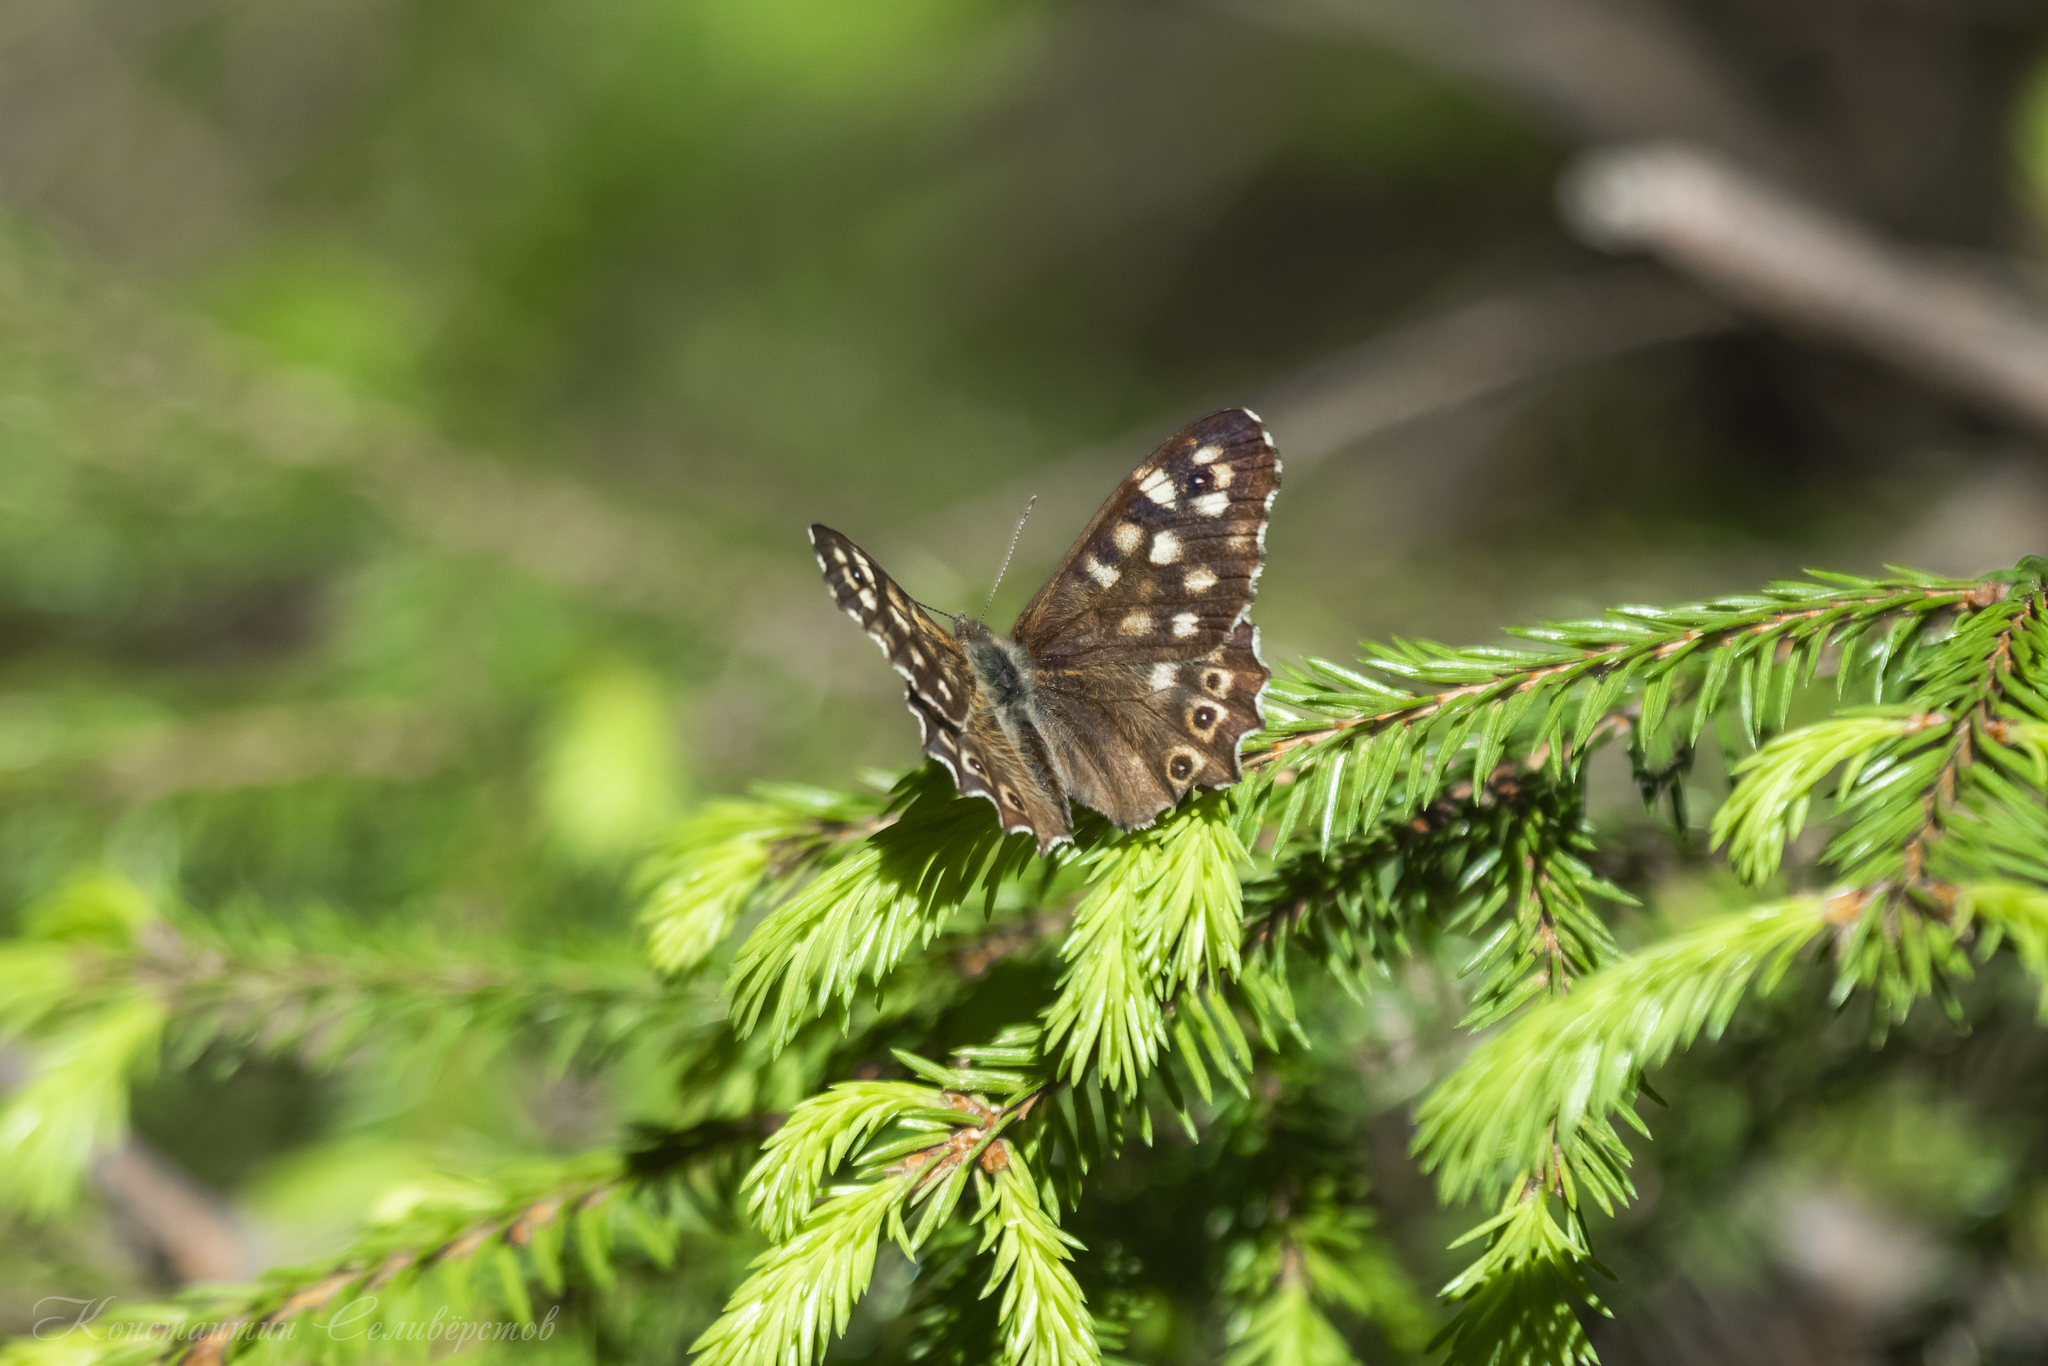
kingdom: Animalia
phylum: Arthropoda
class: Insecta
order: Lepidoptera
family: Nymphalidae
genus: Pararge
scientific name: Pararge aegeria
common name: Speckled wood
